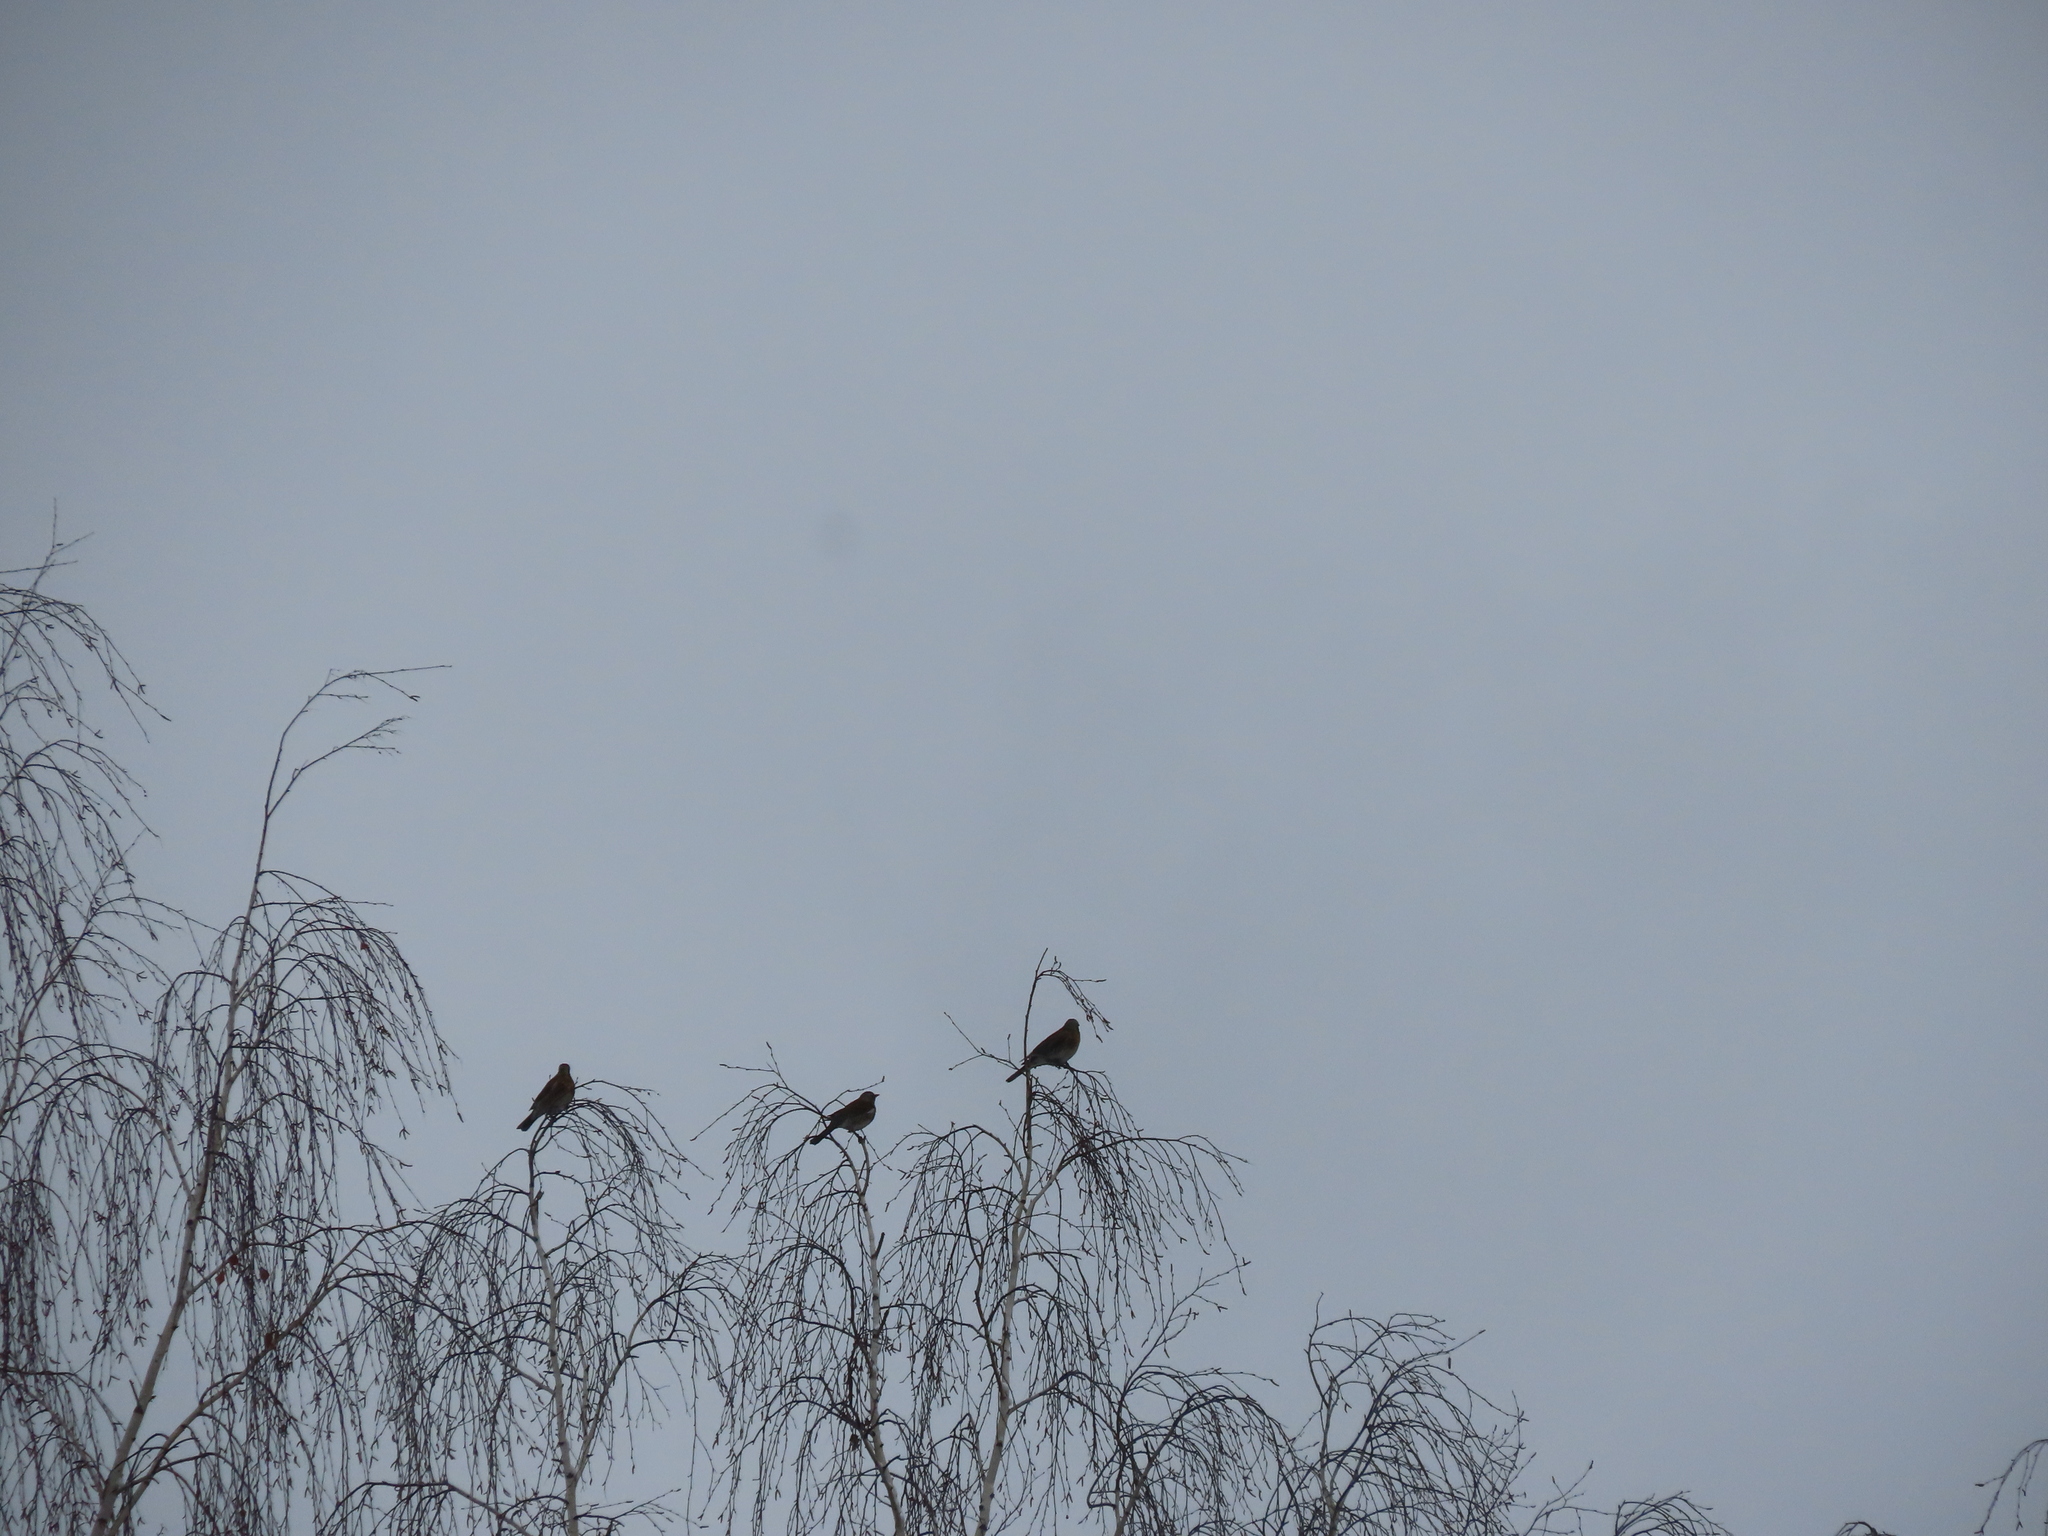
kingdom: Animalia
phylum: Chordata
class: Aves
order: Passeriformes
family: Turdidae
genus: Turdus
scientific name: Turdus pilaris
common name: Fieldfare
